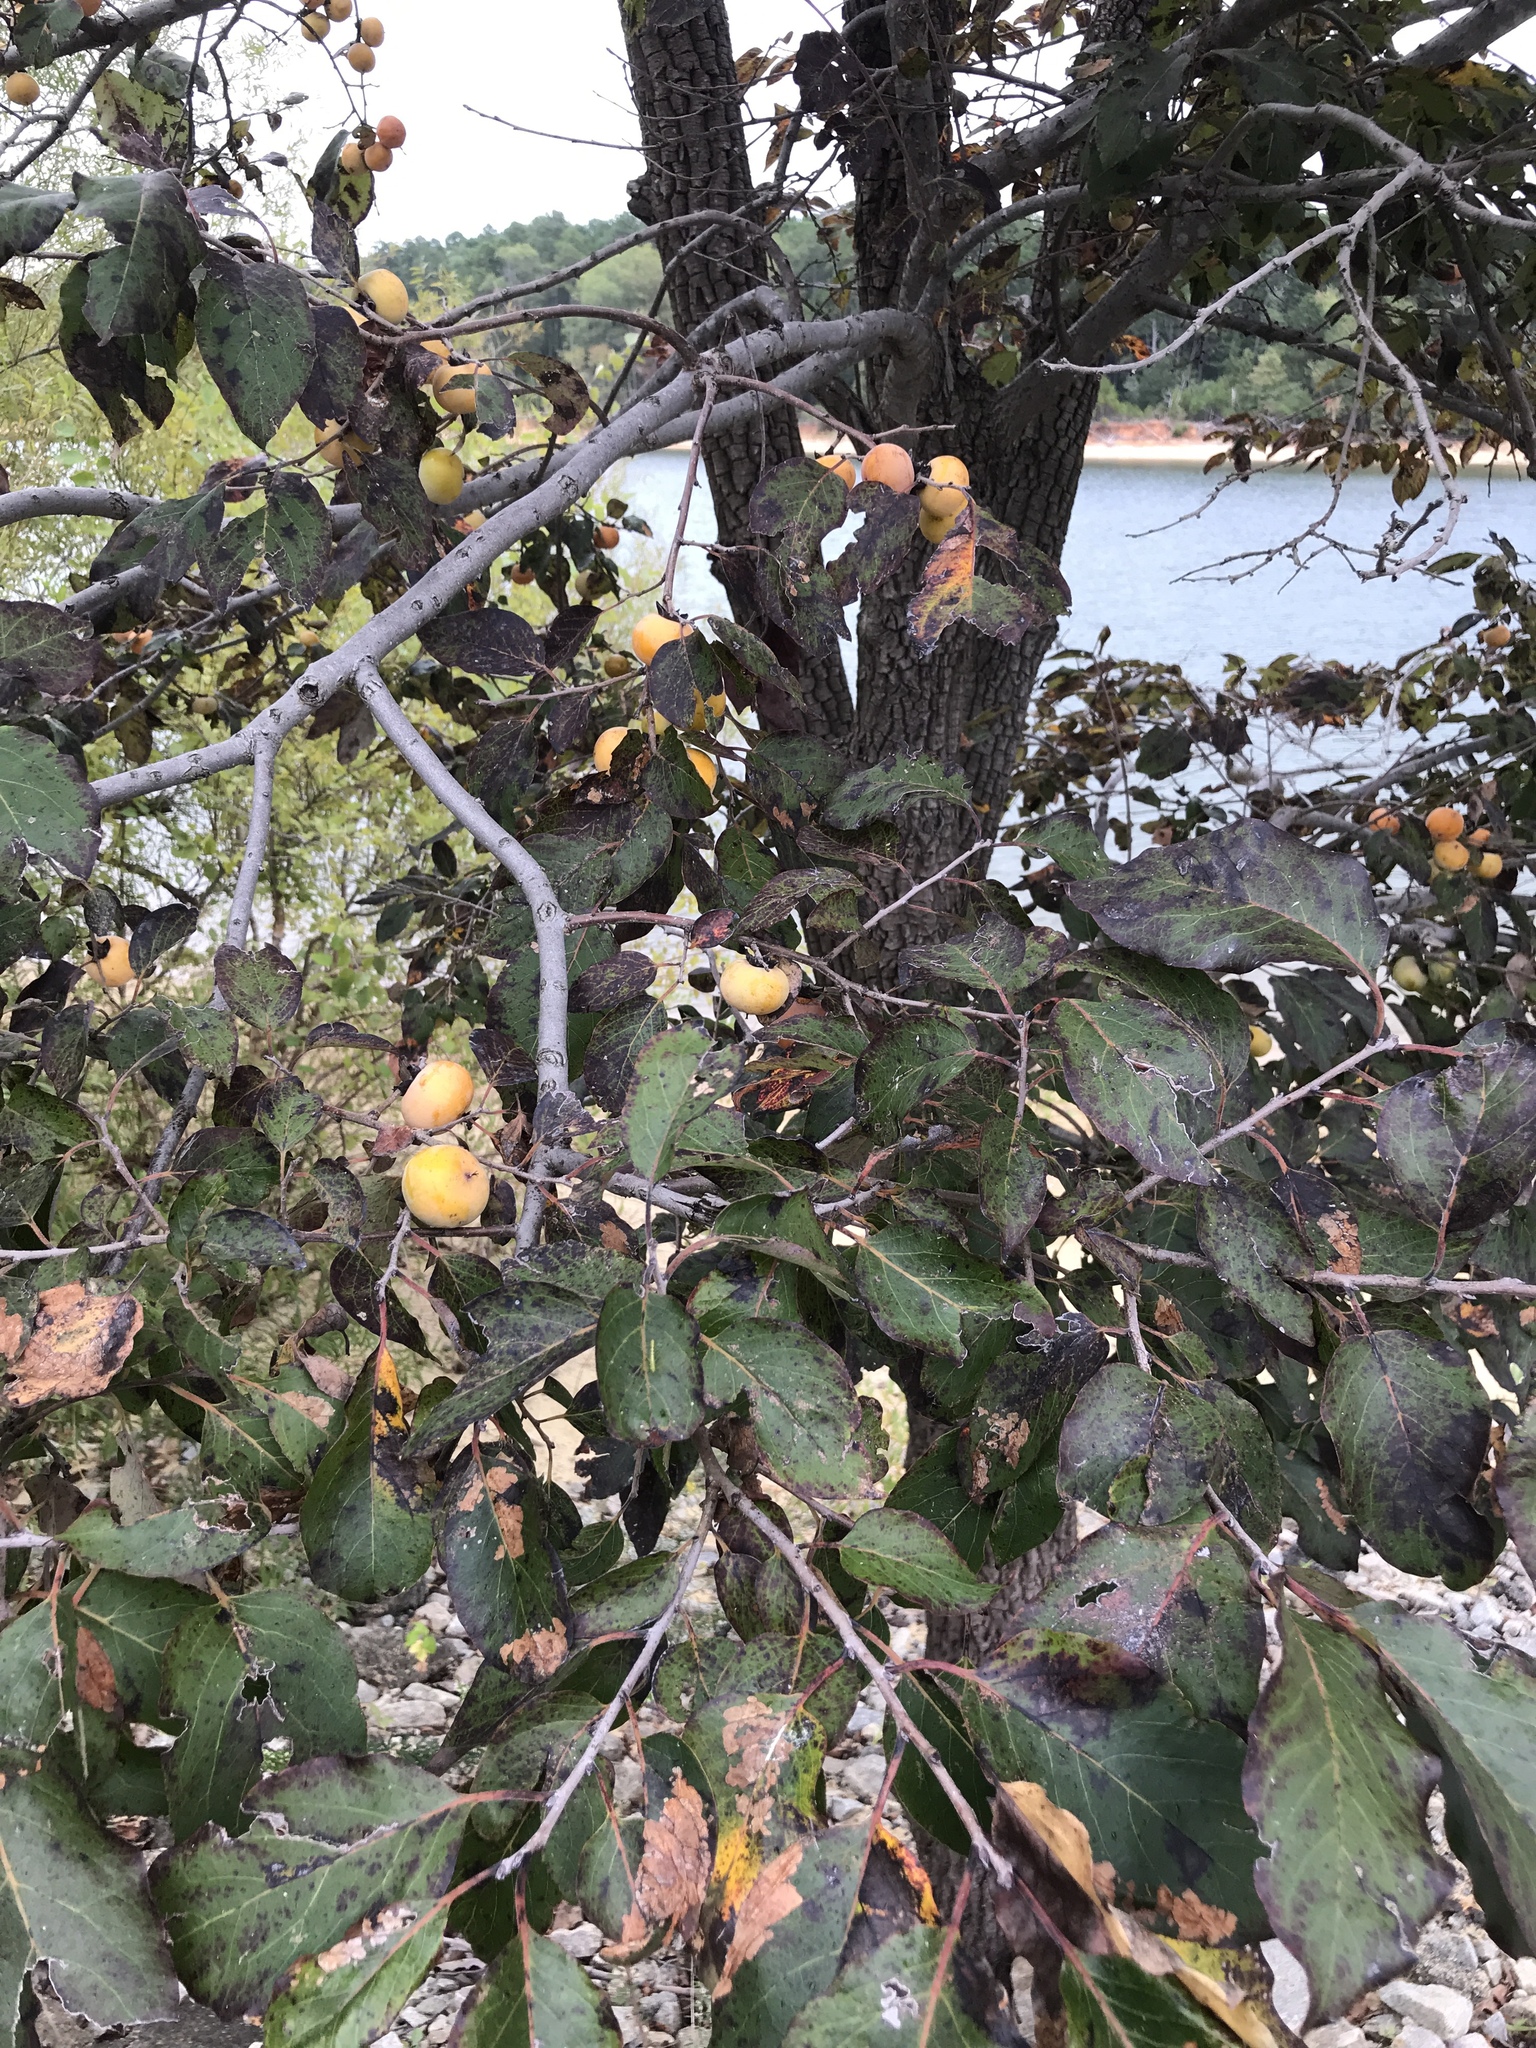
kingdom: Plantae
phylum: Tracheophyta
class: Magnoliopsida
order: Ericales
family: Ebenaceae
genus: Diospyros
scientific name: Diospyros virginiana
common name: Persimmon
